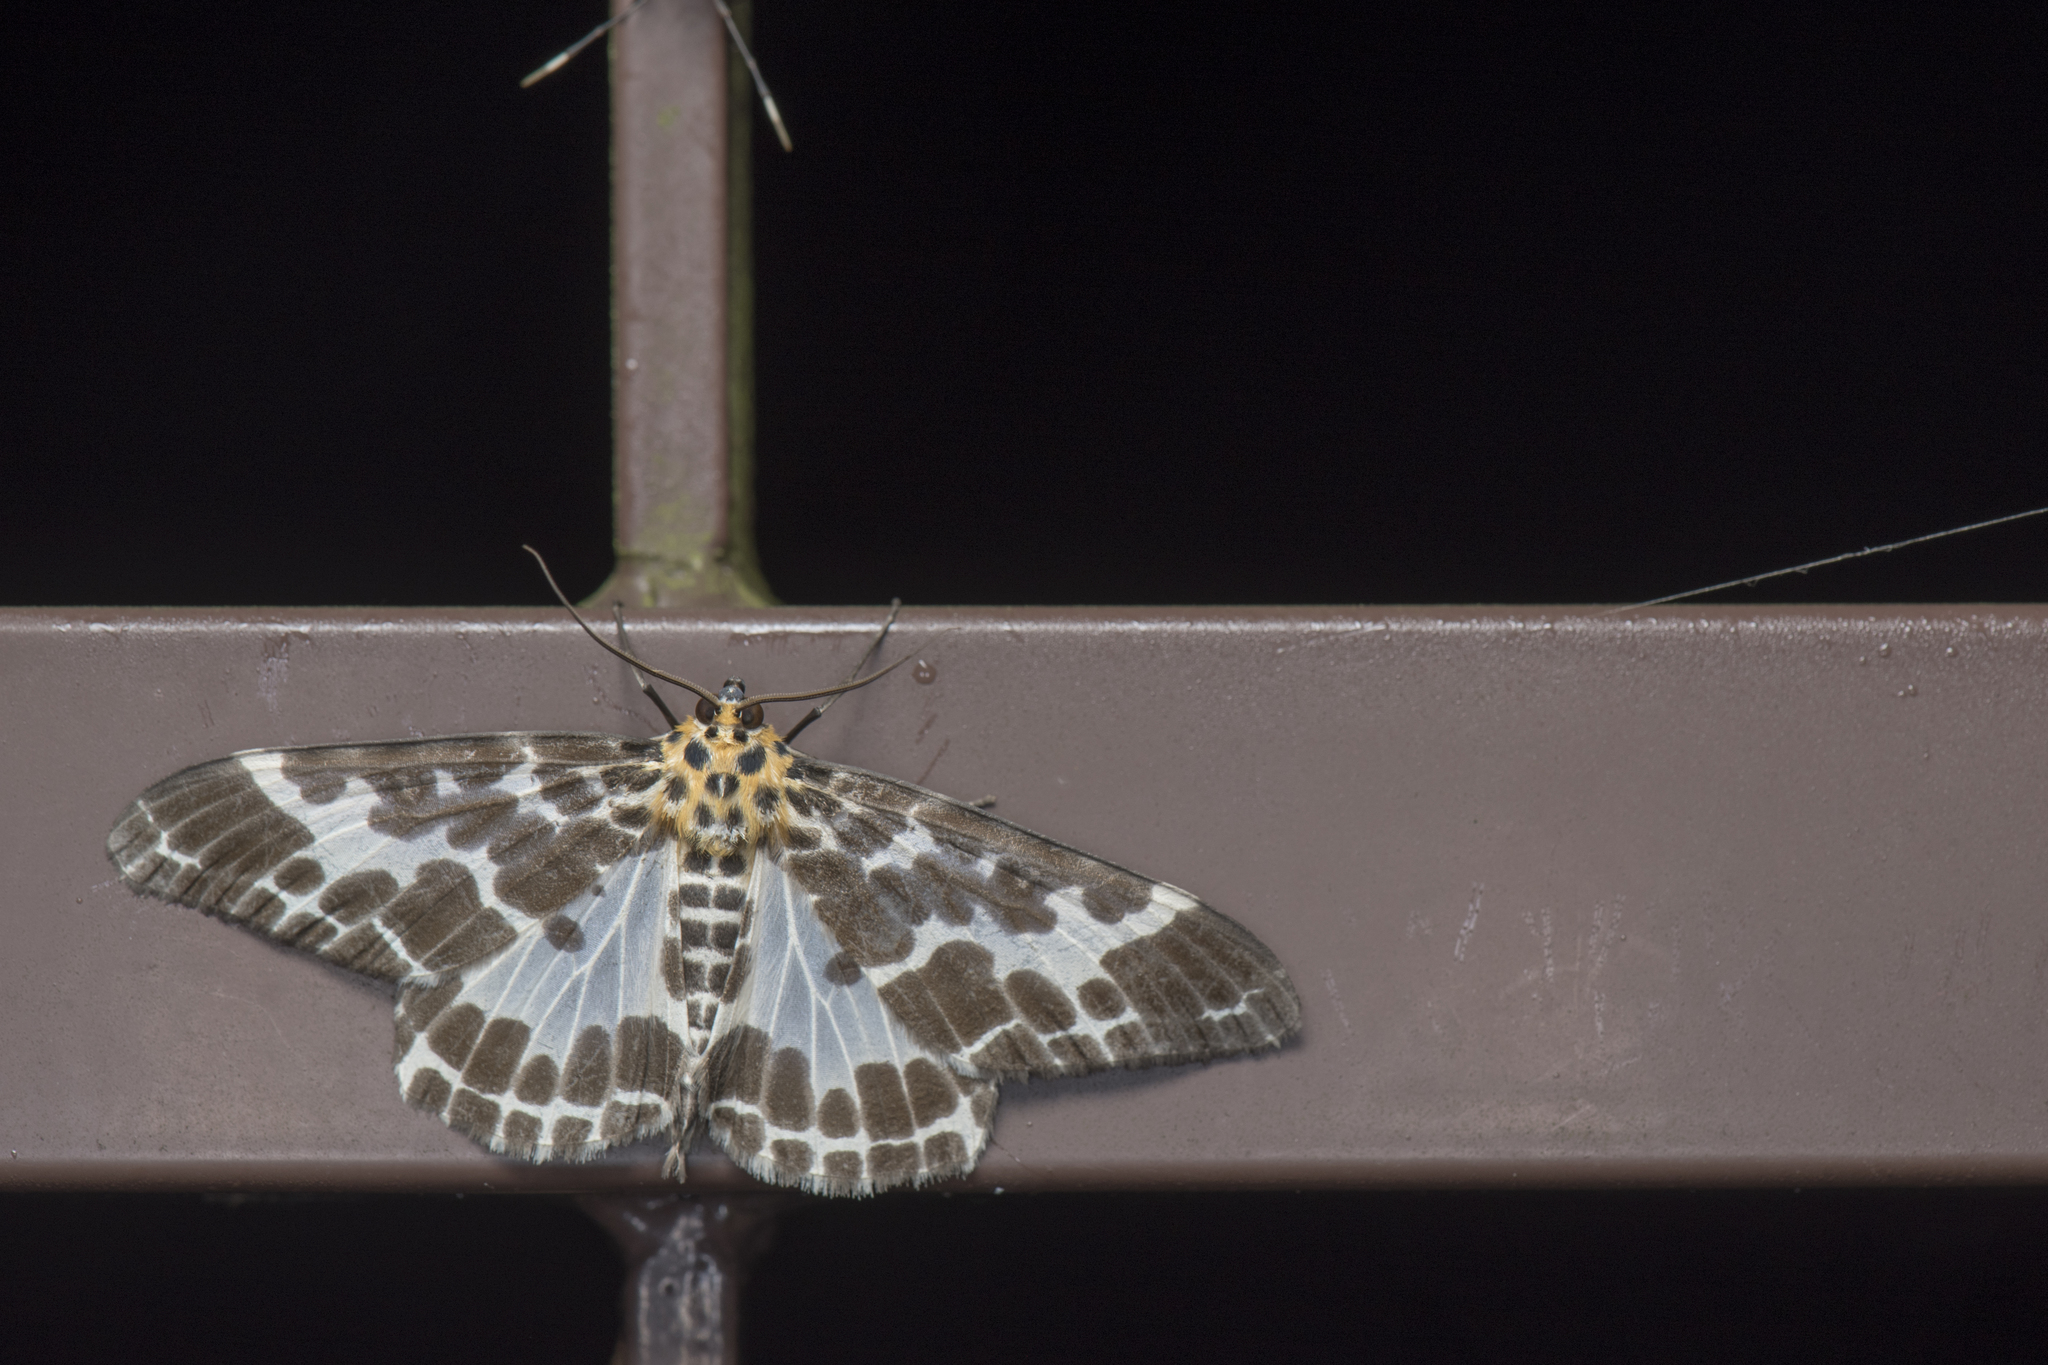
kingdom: Animalia
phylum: Arthropoda
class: Insecta
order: Lepidoptera
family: Geometridae
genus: Pogonopygia
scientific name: Pogonopygia nigralbata
